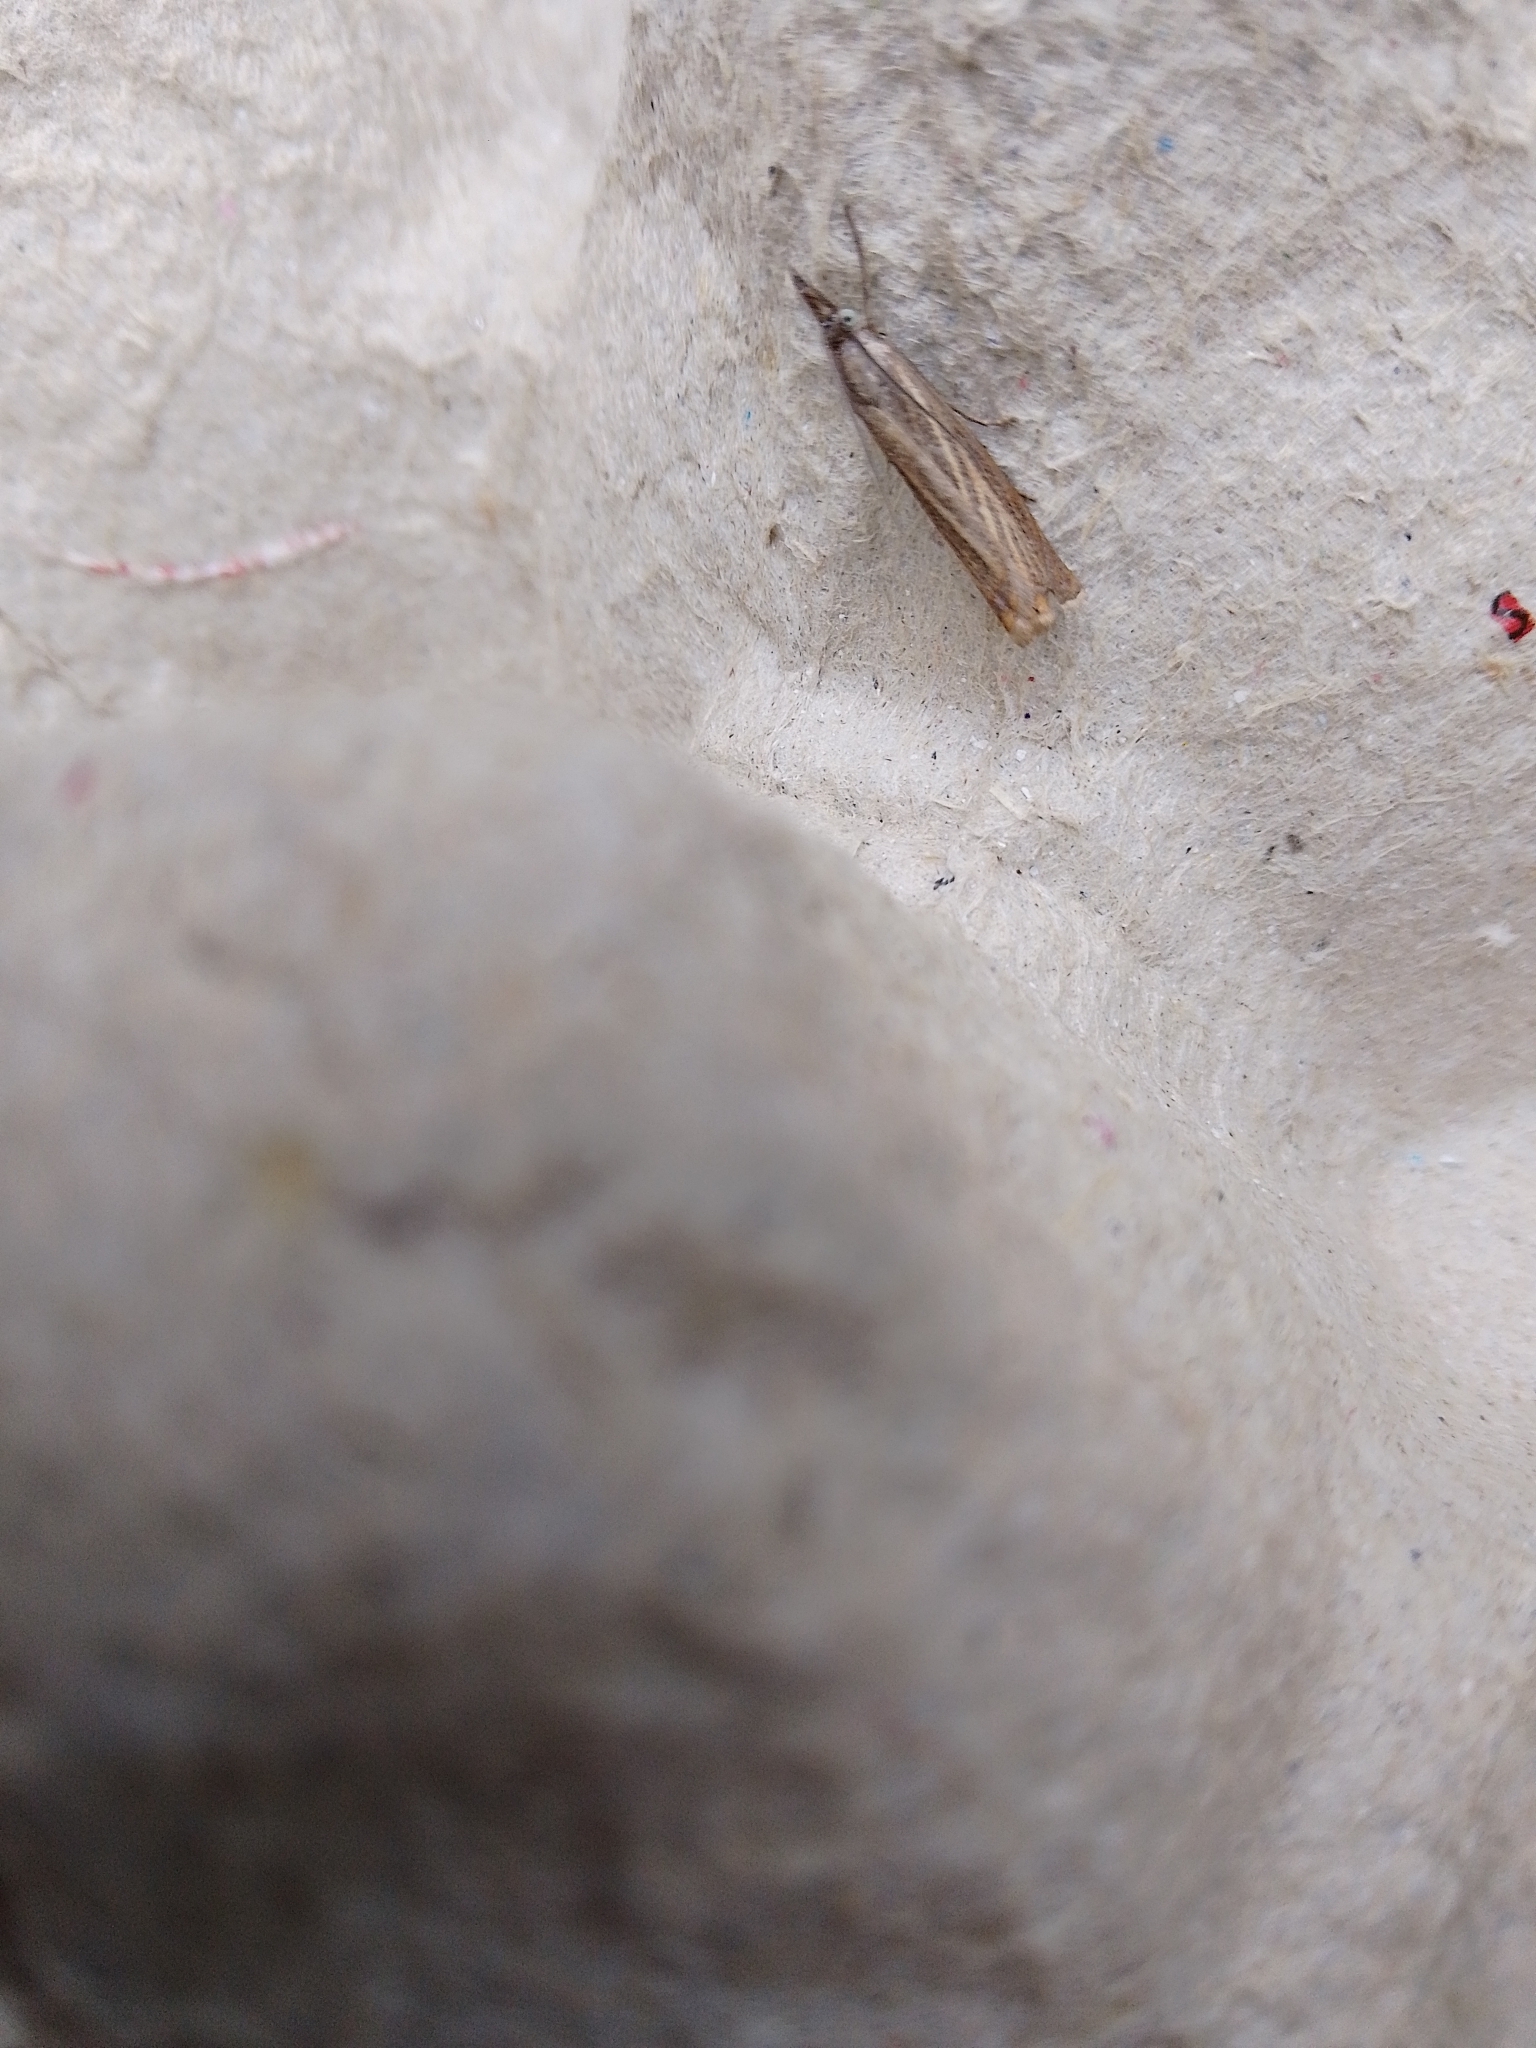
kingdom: Animalia
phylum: Arthropoda
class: Insecta
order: Lepidoptera
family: Crambidae
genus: Chrysoteuchia
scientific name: Chrysoteuchia culmella
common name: Garden grass-veneer
